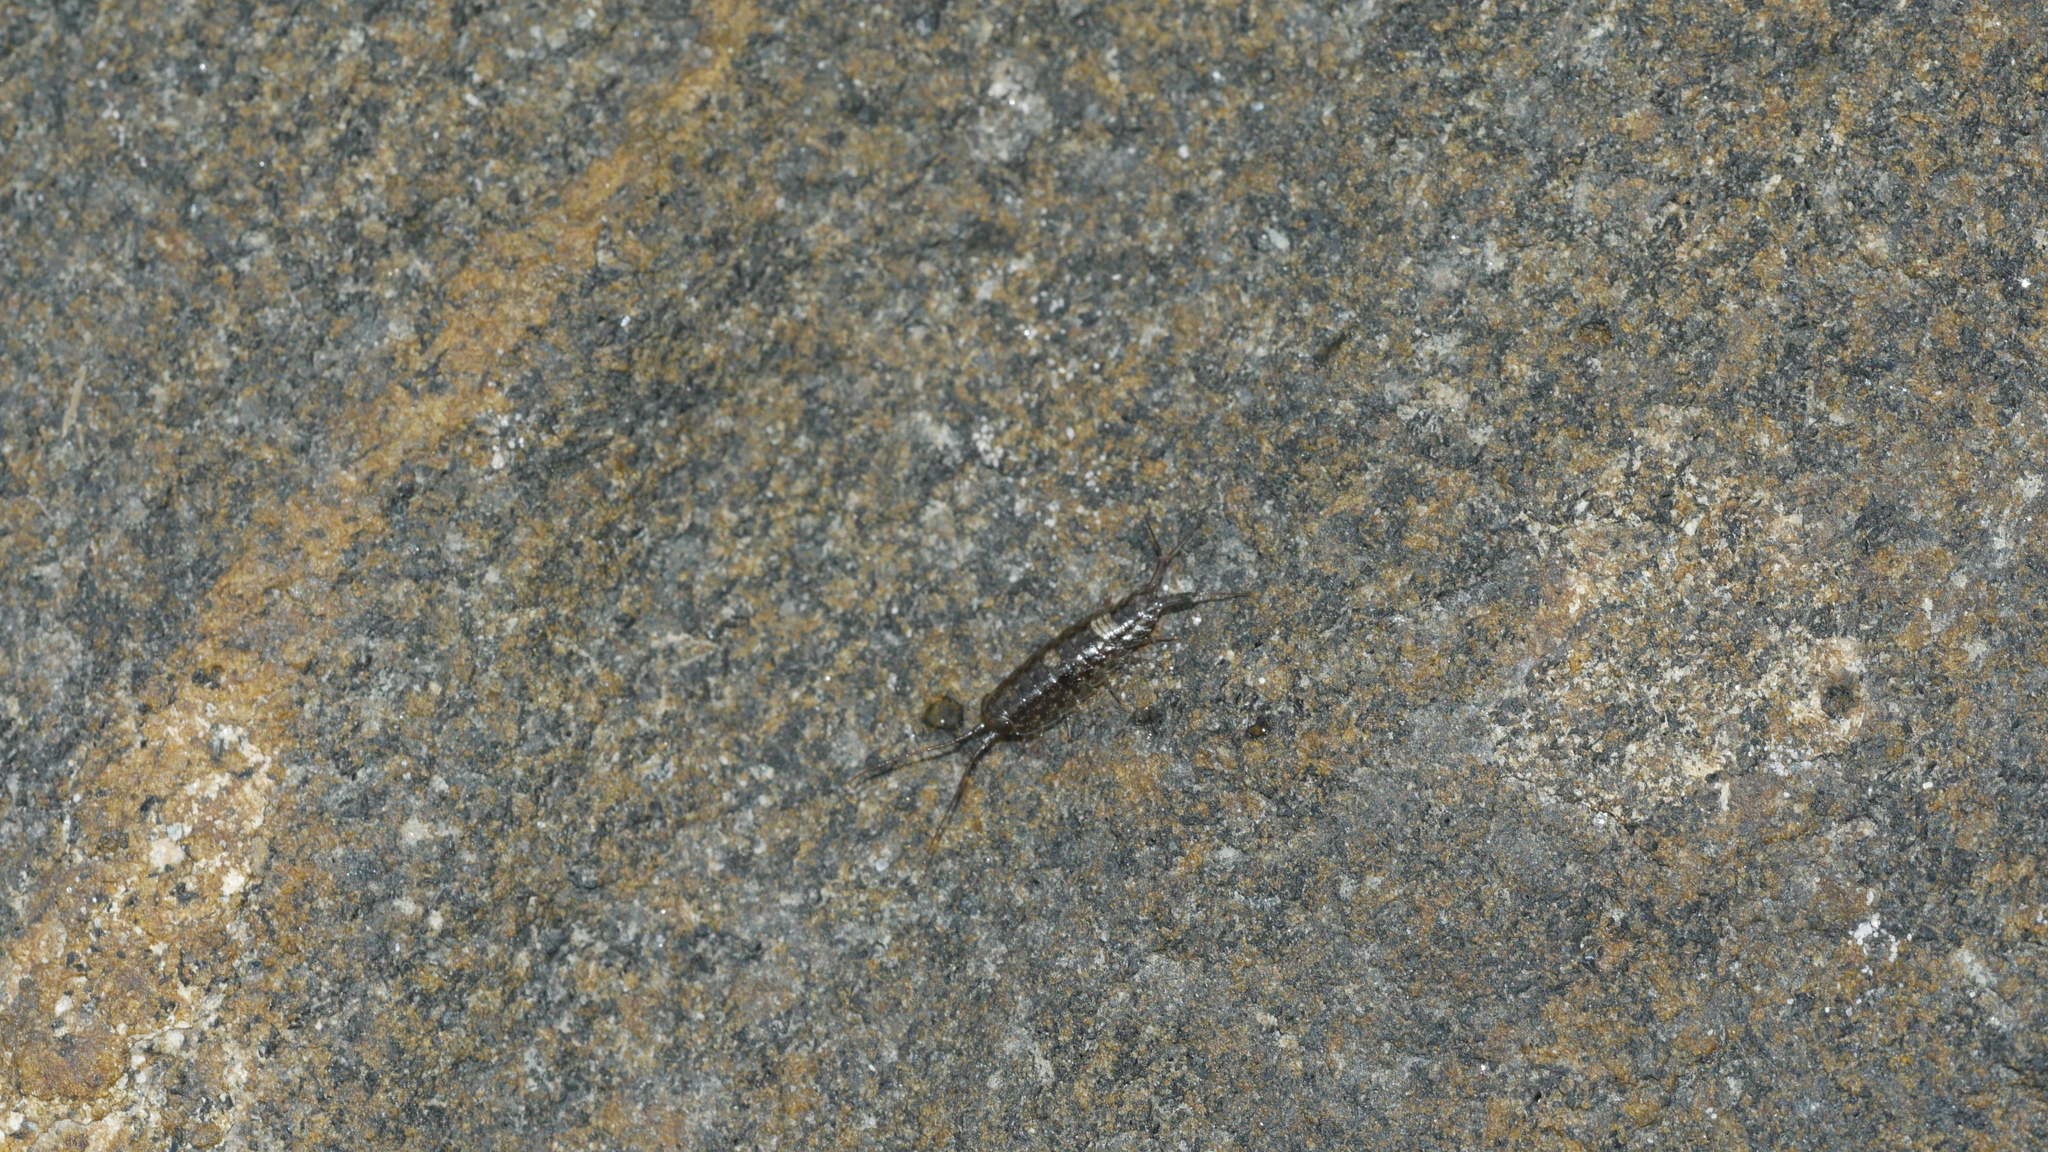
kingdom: Animalia
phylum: Arthropoda
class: Malacostraca
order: Isopoda
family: Ligiidae
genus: Ligia
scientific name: Ligia exotica
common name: Wharf roach
